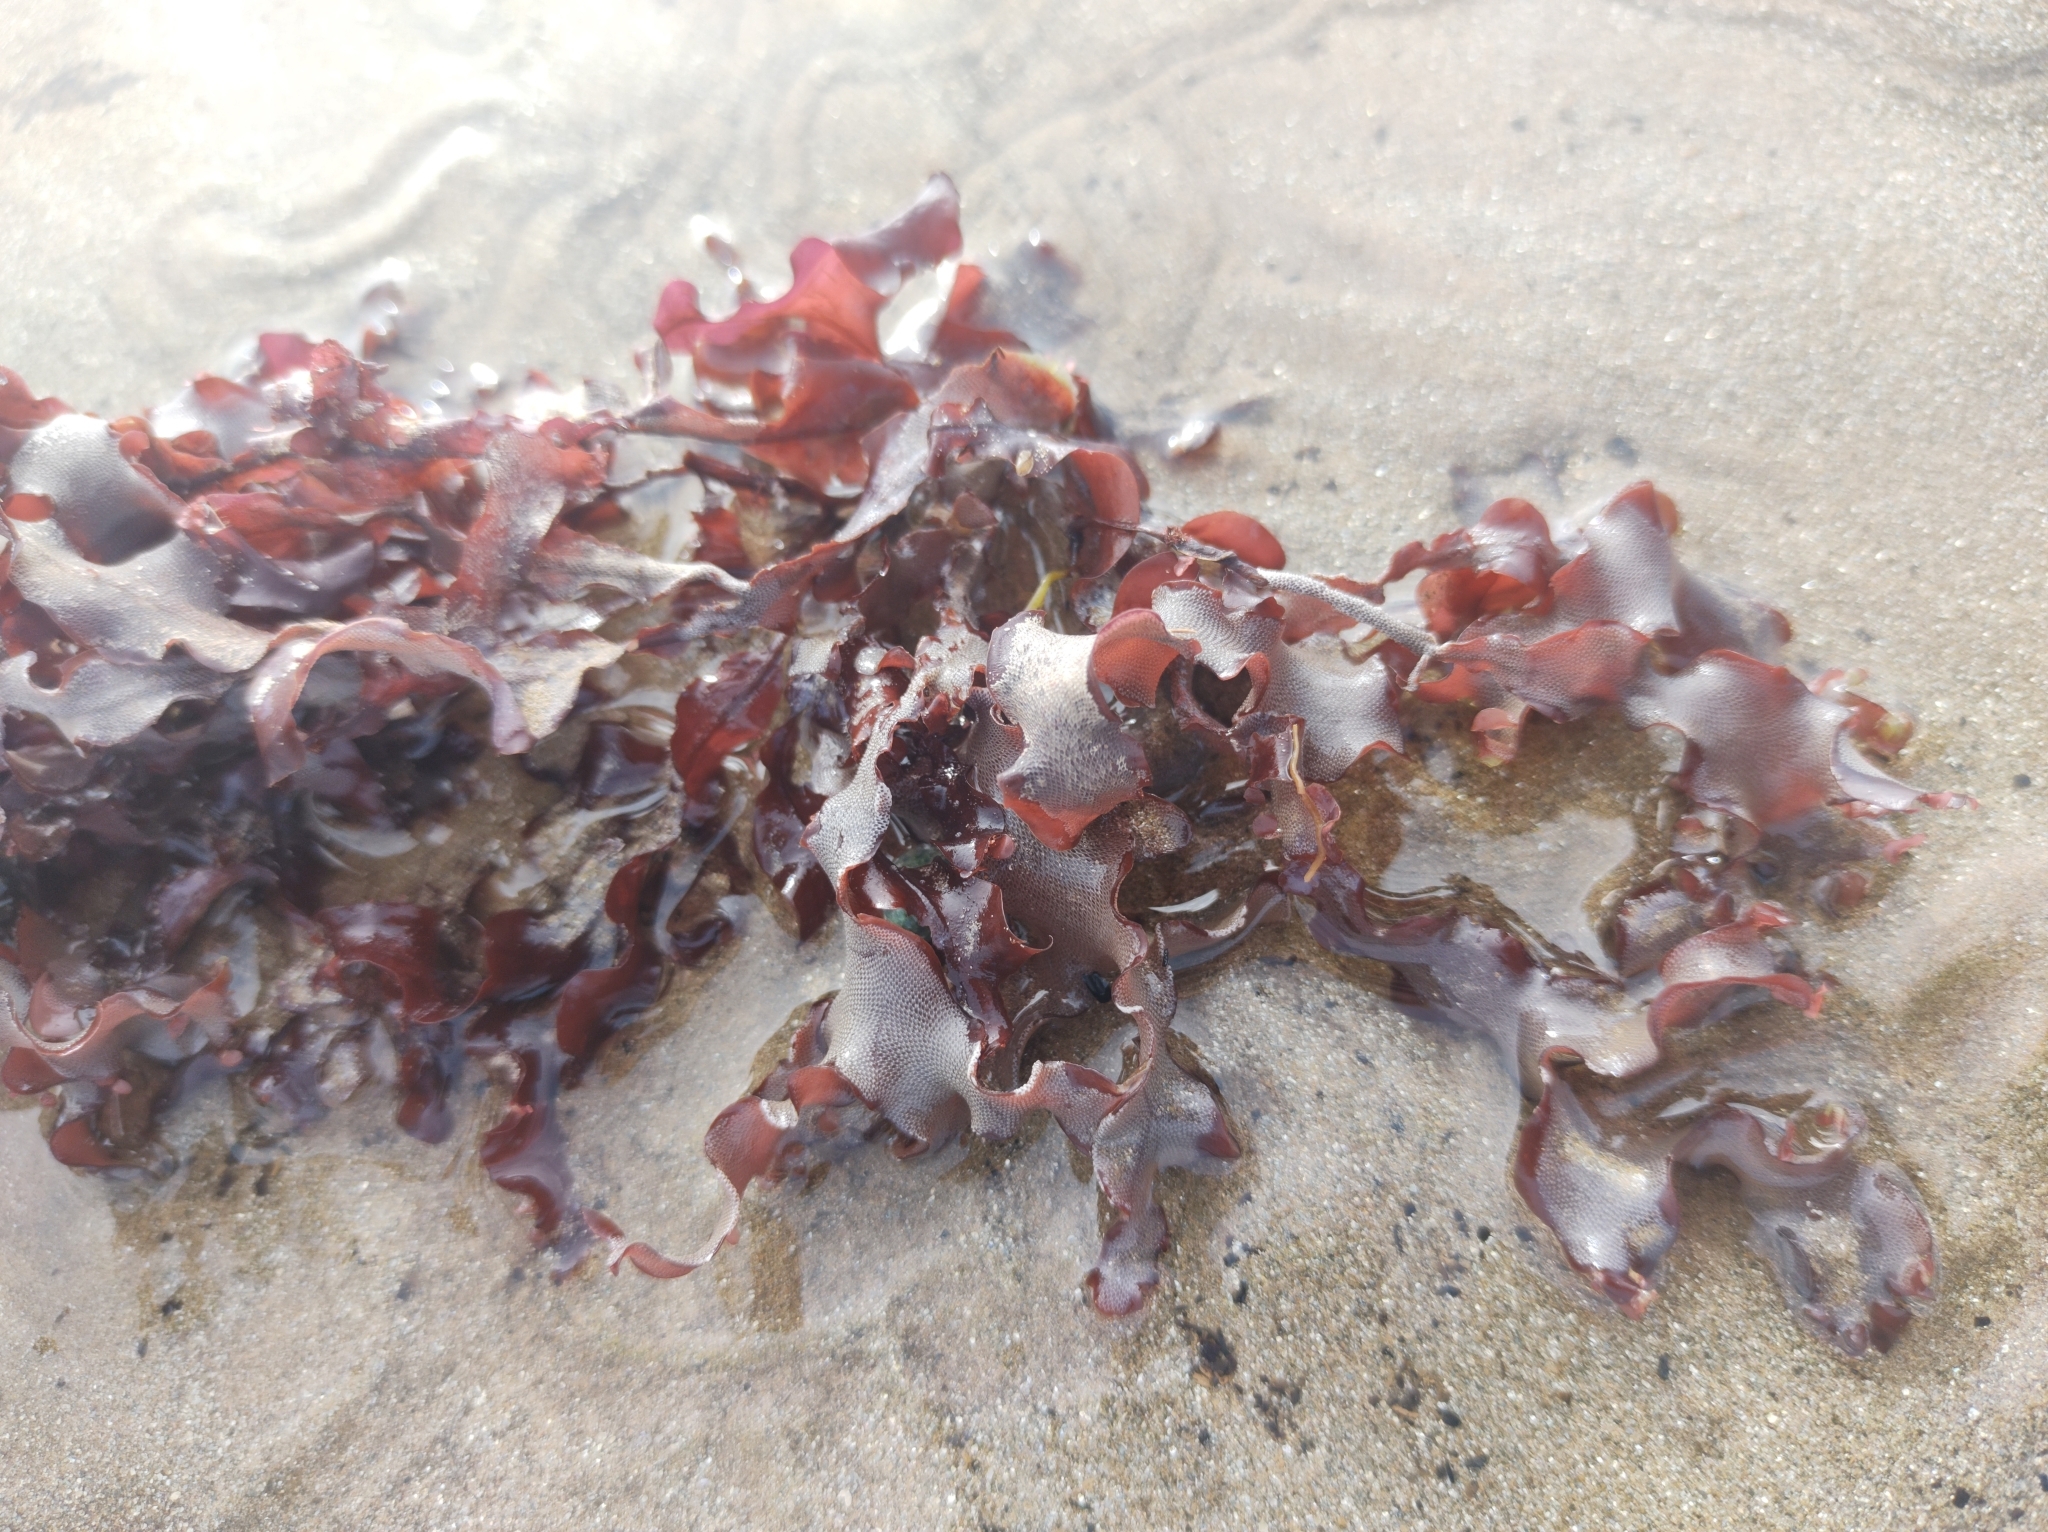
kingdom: Plantae
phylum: Rhodophyta
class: Florideophyceae
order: Ceramiales
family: Delesseriaceae
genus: Cryptopleura
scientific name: Cryptopleura ruprechtiana
